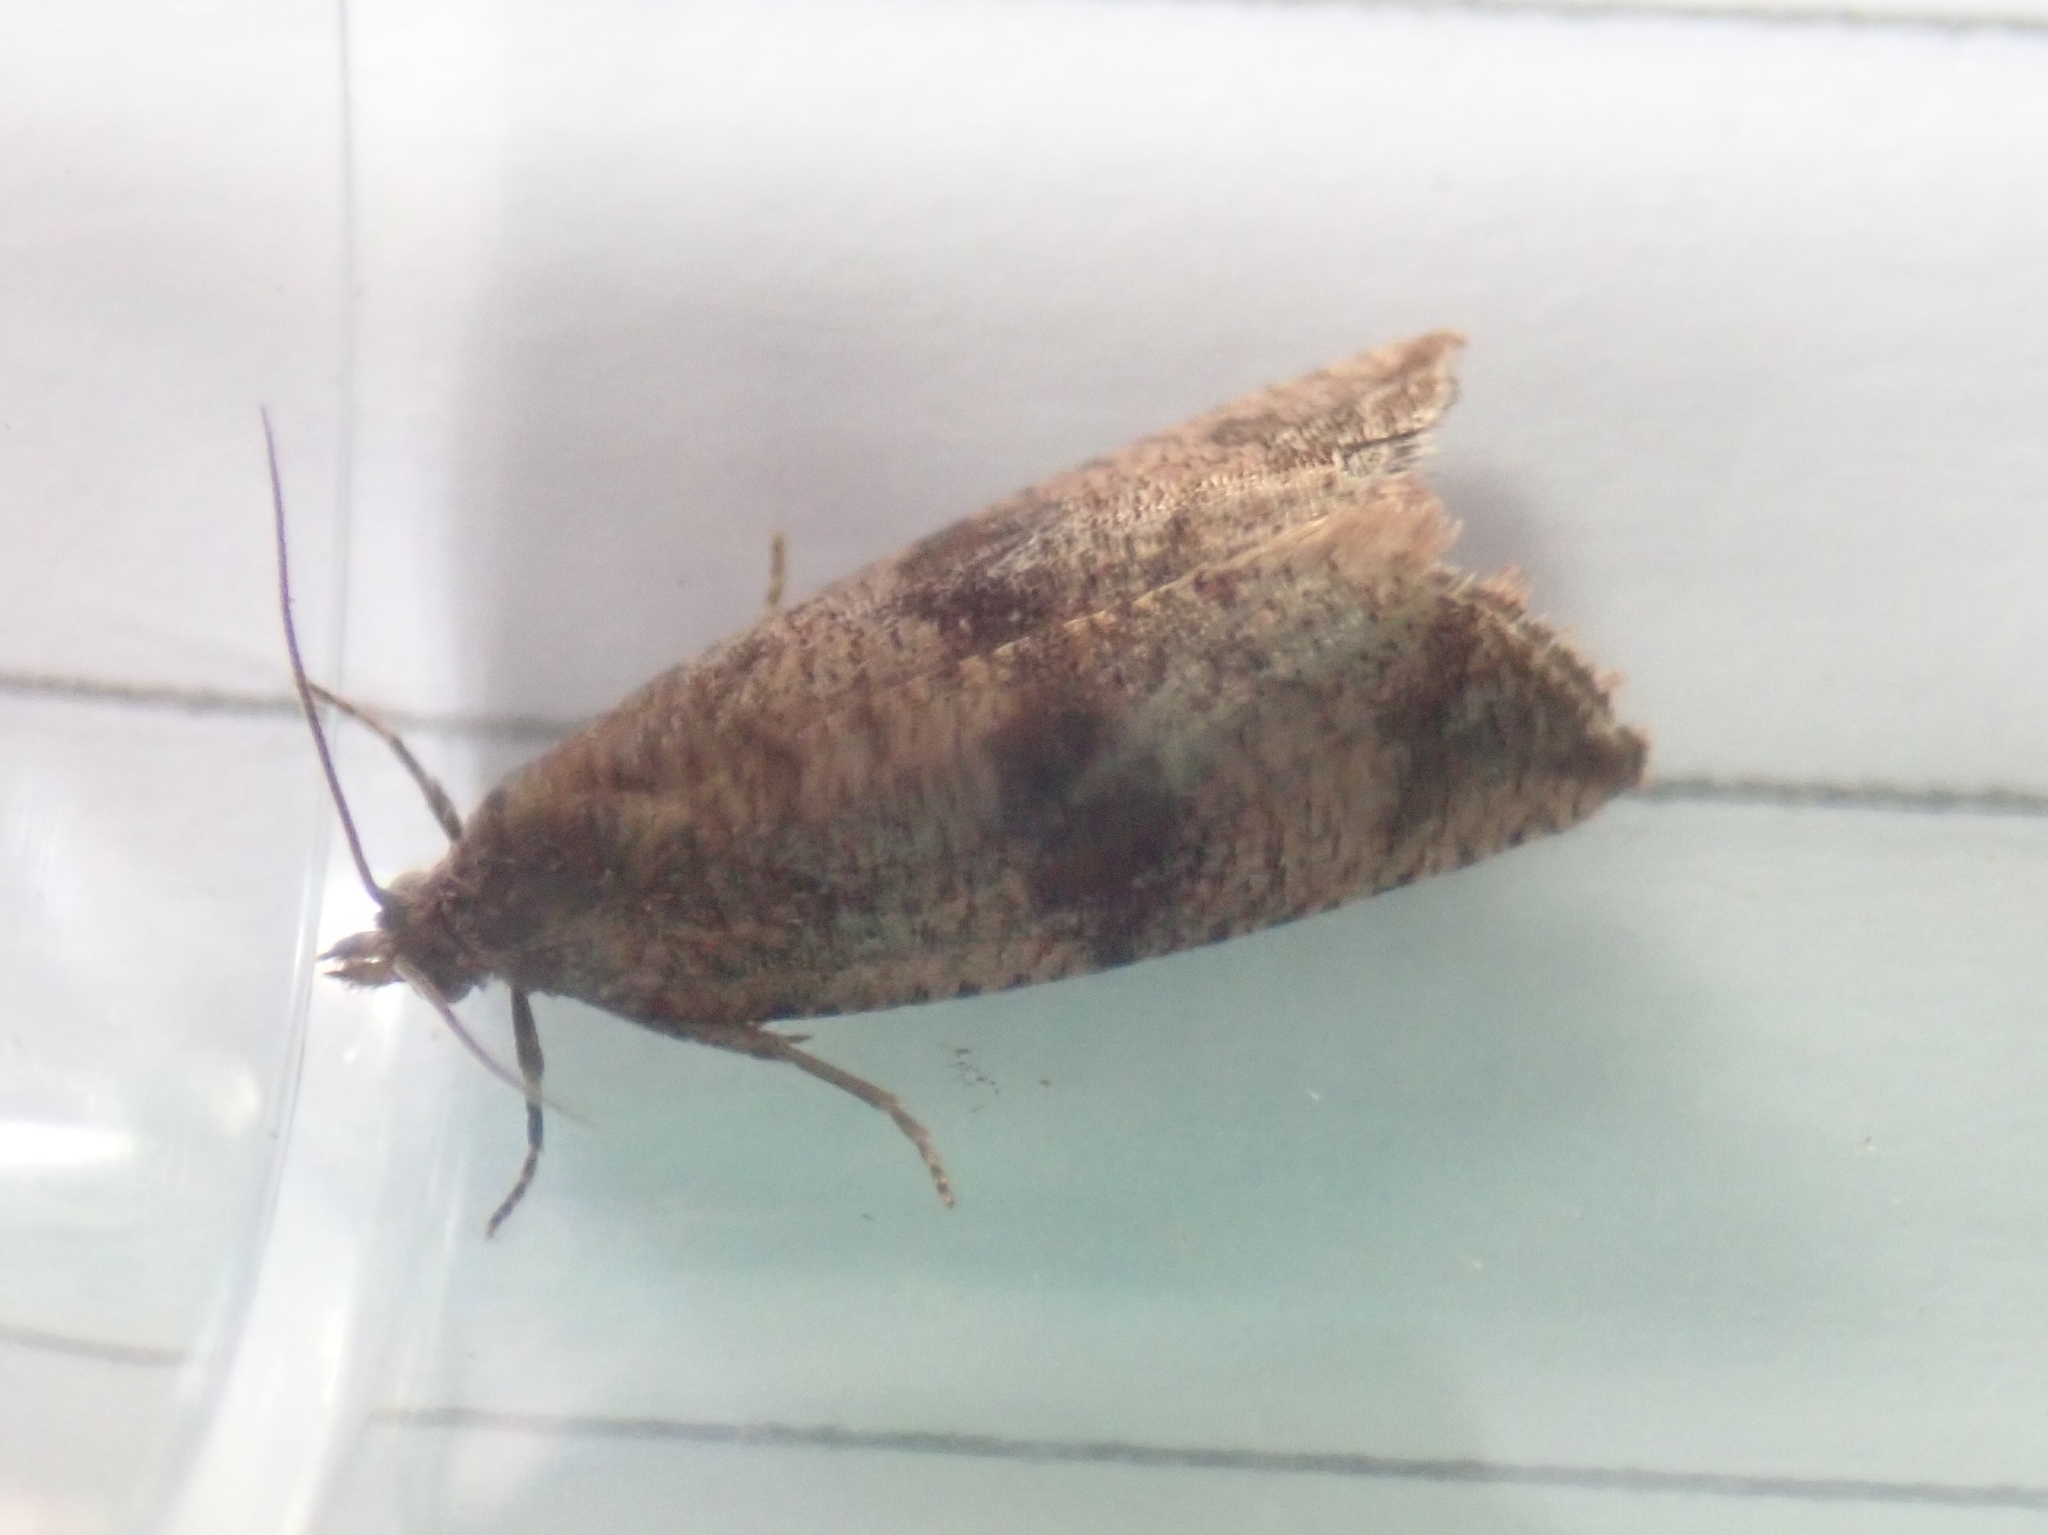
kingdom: Animalia
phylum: Arthropoda
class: Insecta
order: Lepidoptera
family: Tortricidae
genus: Celypha
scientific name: Celypha striana
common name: Barred marble
